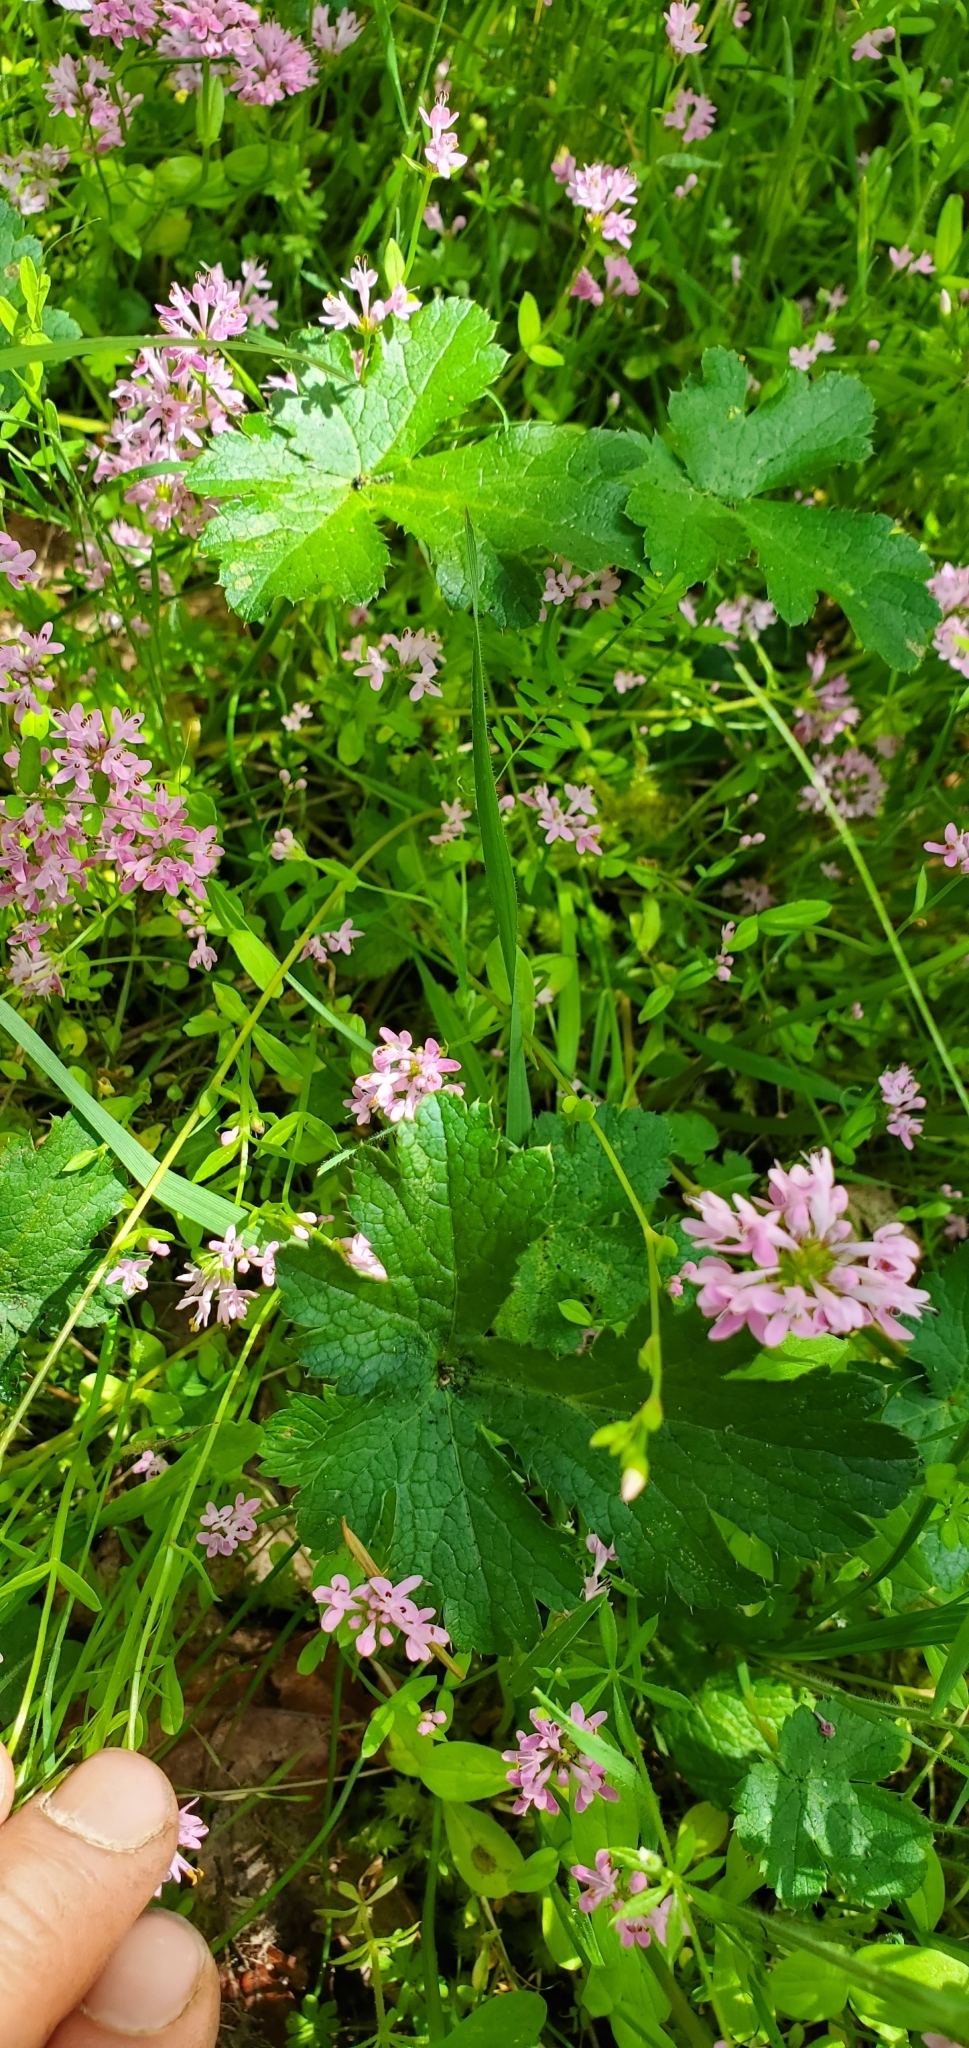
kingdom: Plantae
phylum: Tracheophyta
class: Magnoliopsida
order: Apiales
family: Apiaceae
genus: Sanicula
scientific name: Sanicula crassicaulis
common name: Western snakeroot
